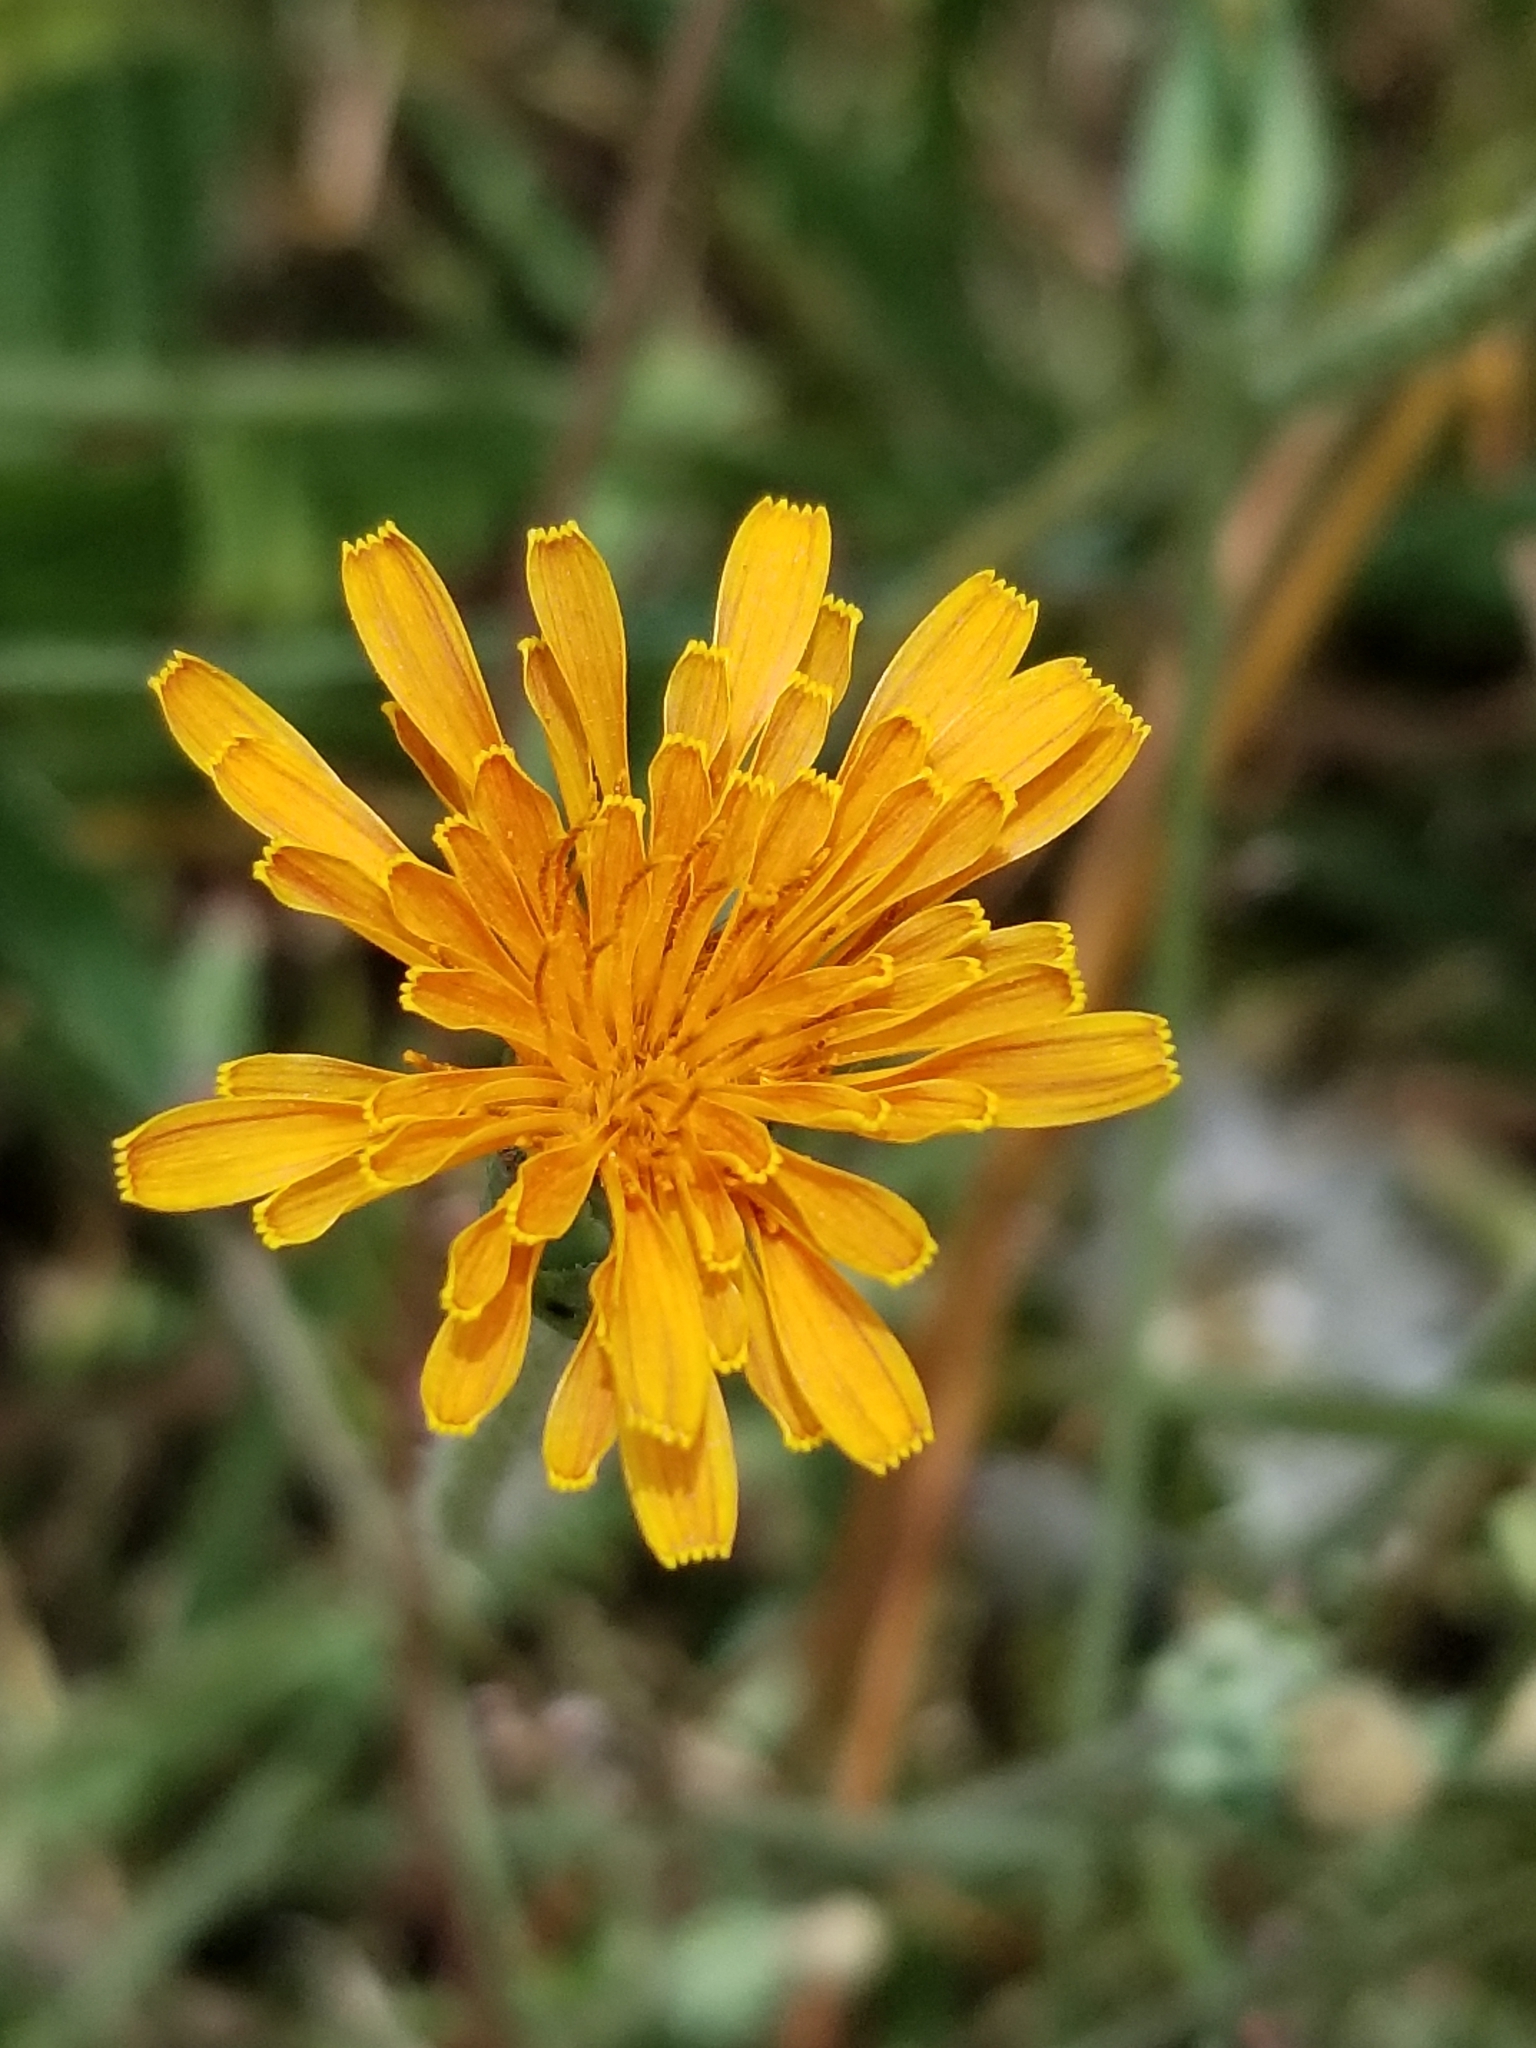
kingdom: Plantae
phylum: Tracheophyta
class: Magnoliopsida
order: Asterales
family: Asteraceae
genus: Agoseris
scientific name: Agoseris aurantiaca
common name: Mountain agoseris
